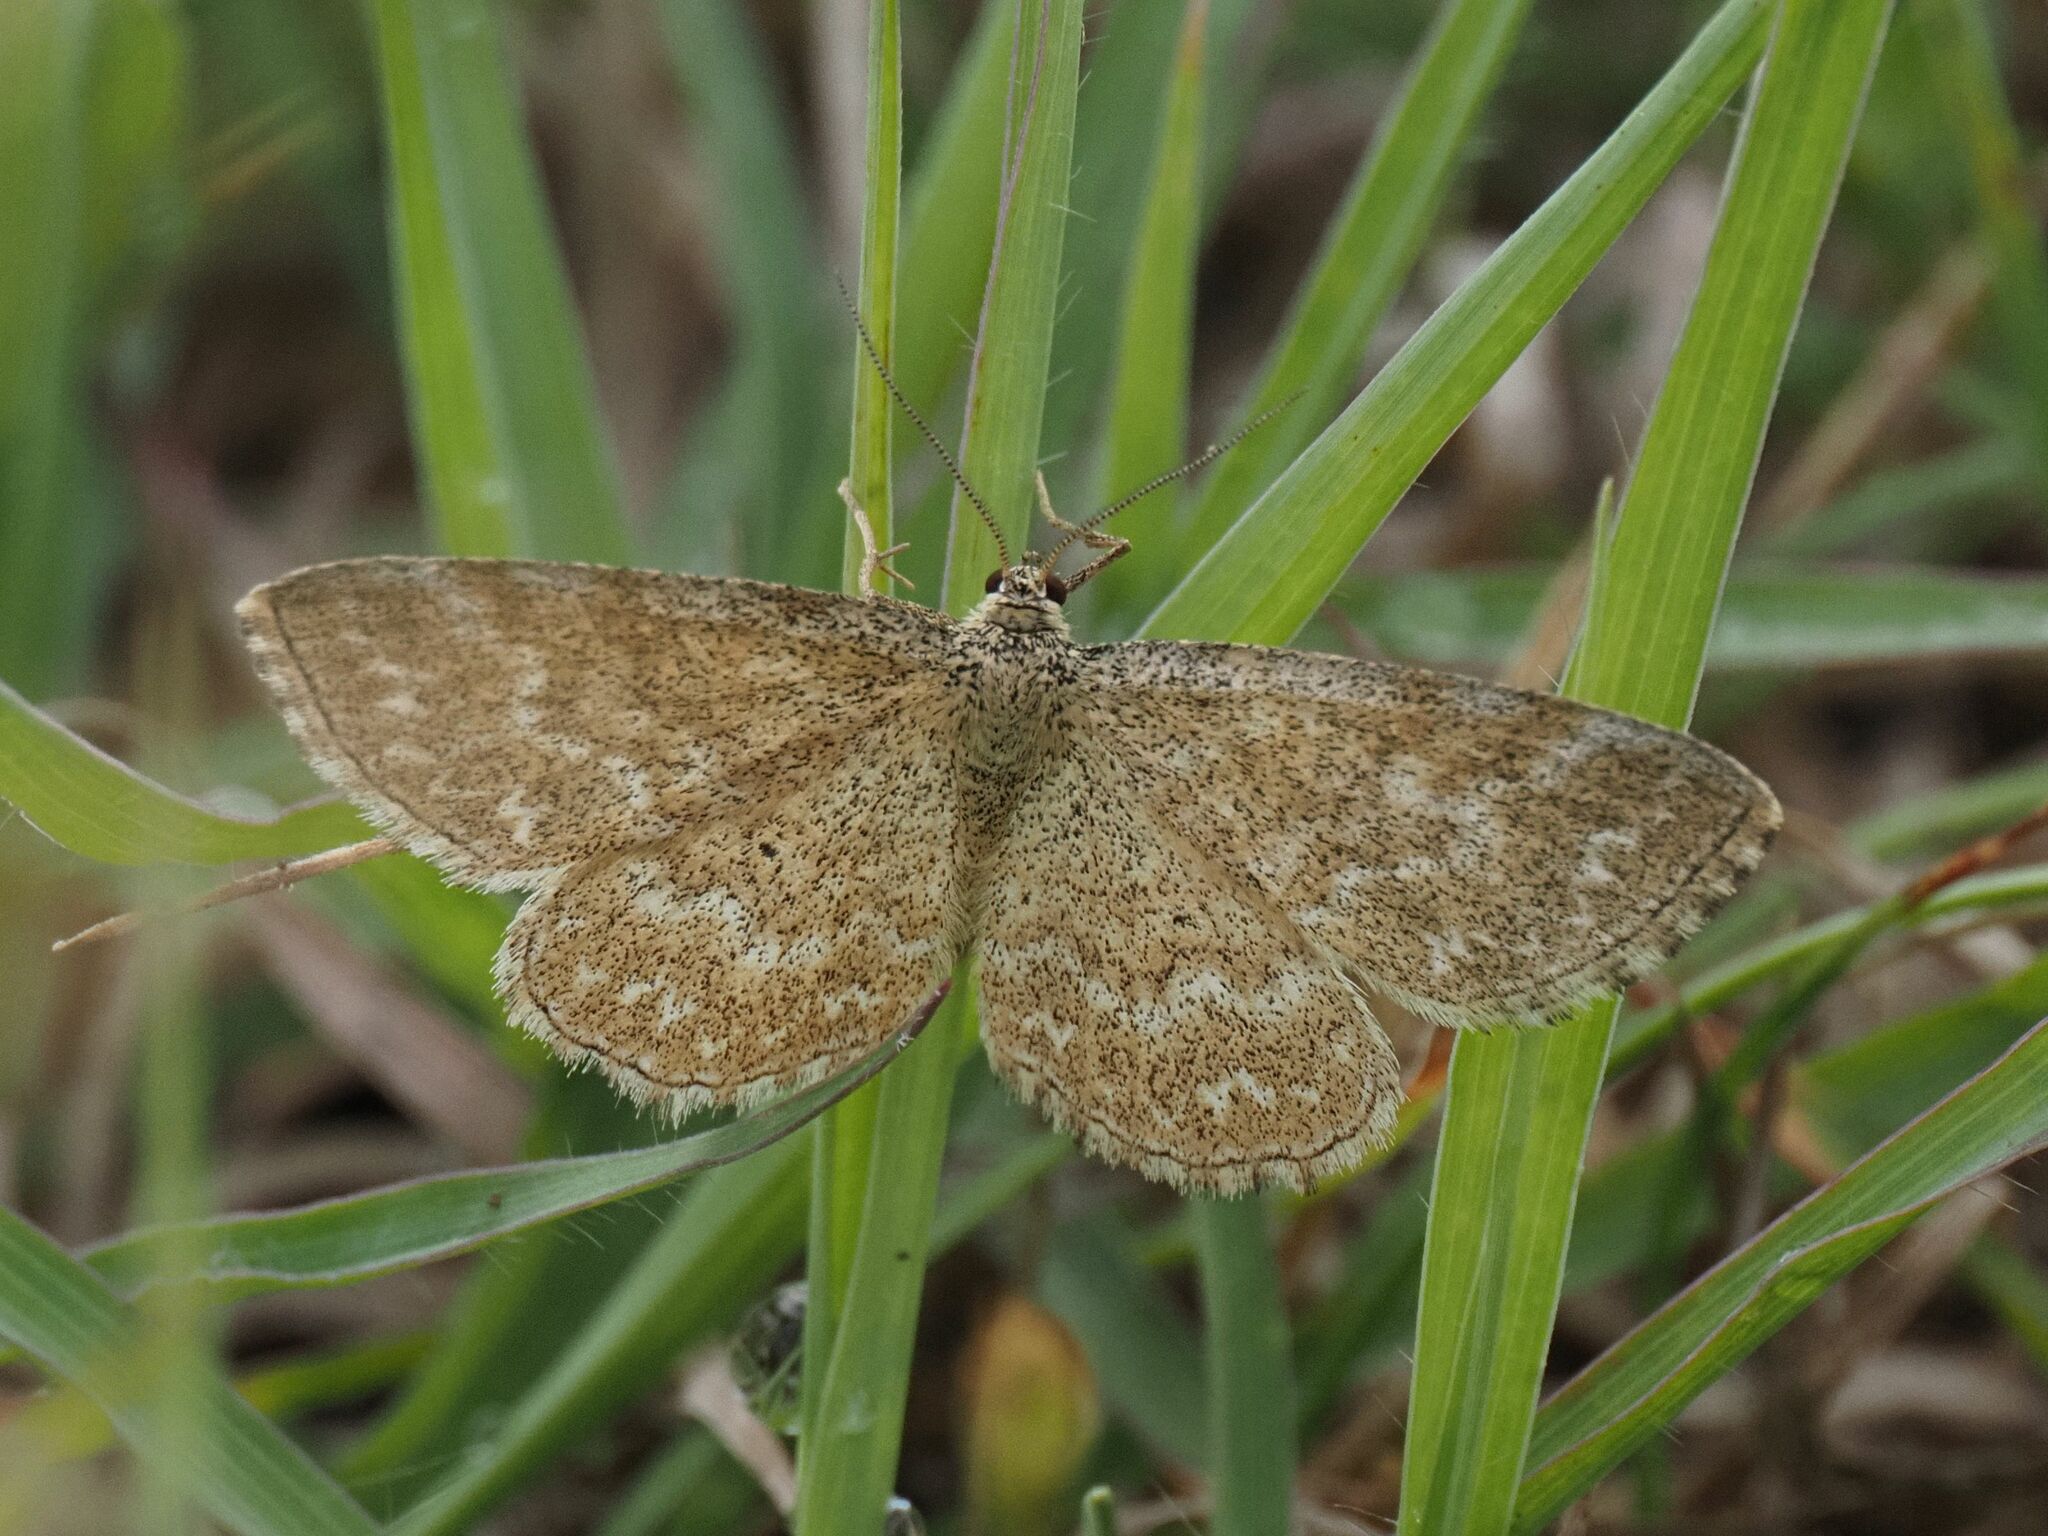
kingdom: Animalia
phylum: Arthropoda
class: Insecta
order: Lepidoptera
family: Geometridae
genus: Scopula
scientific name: Scopula immorata
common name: Lewes wave
